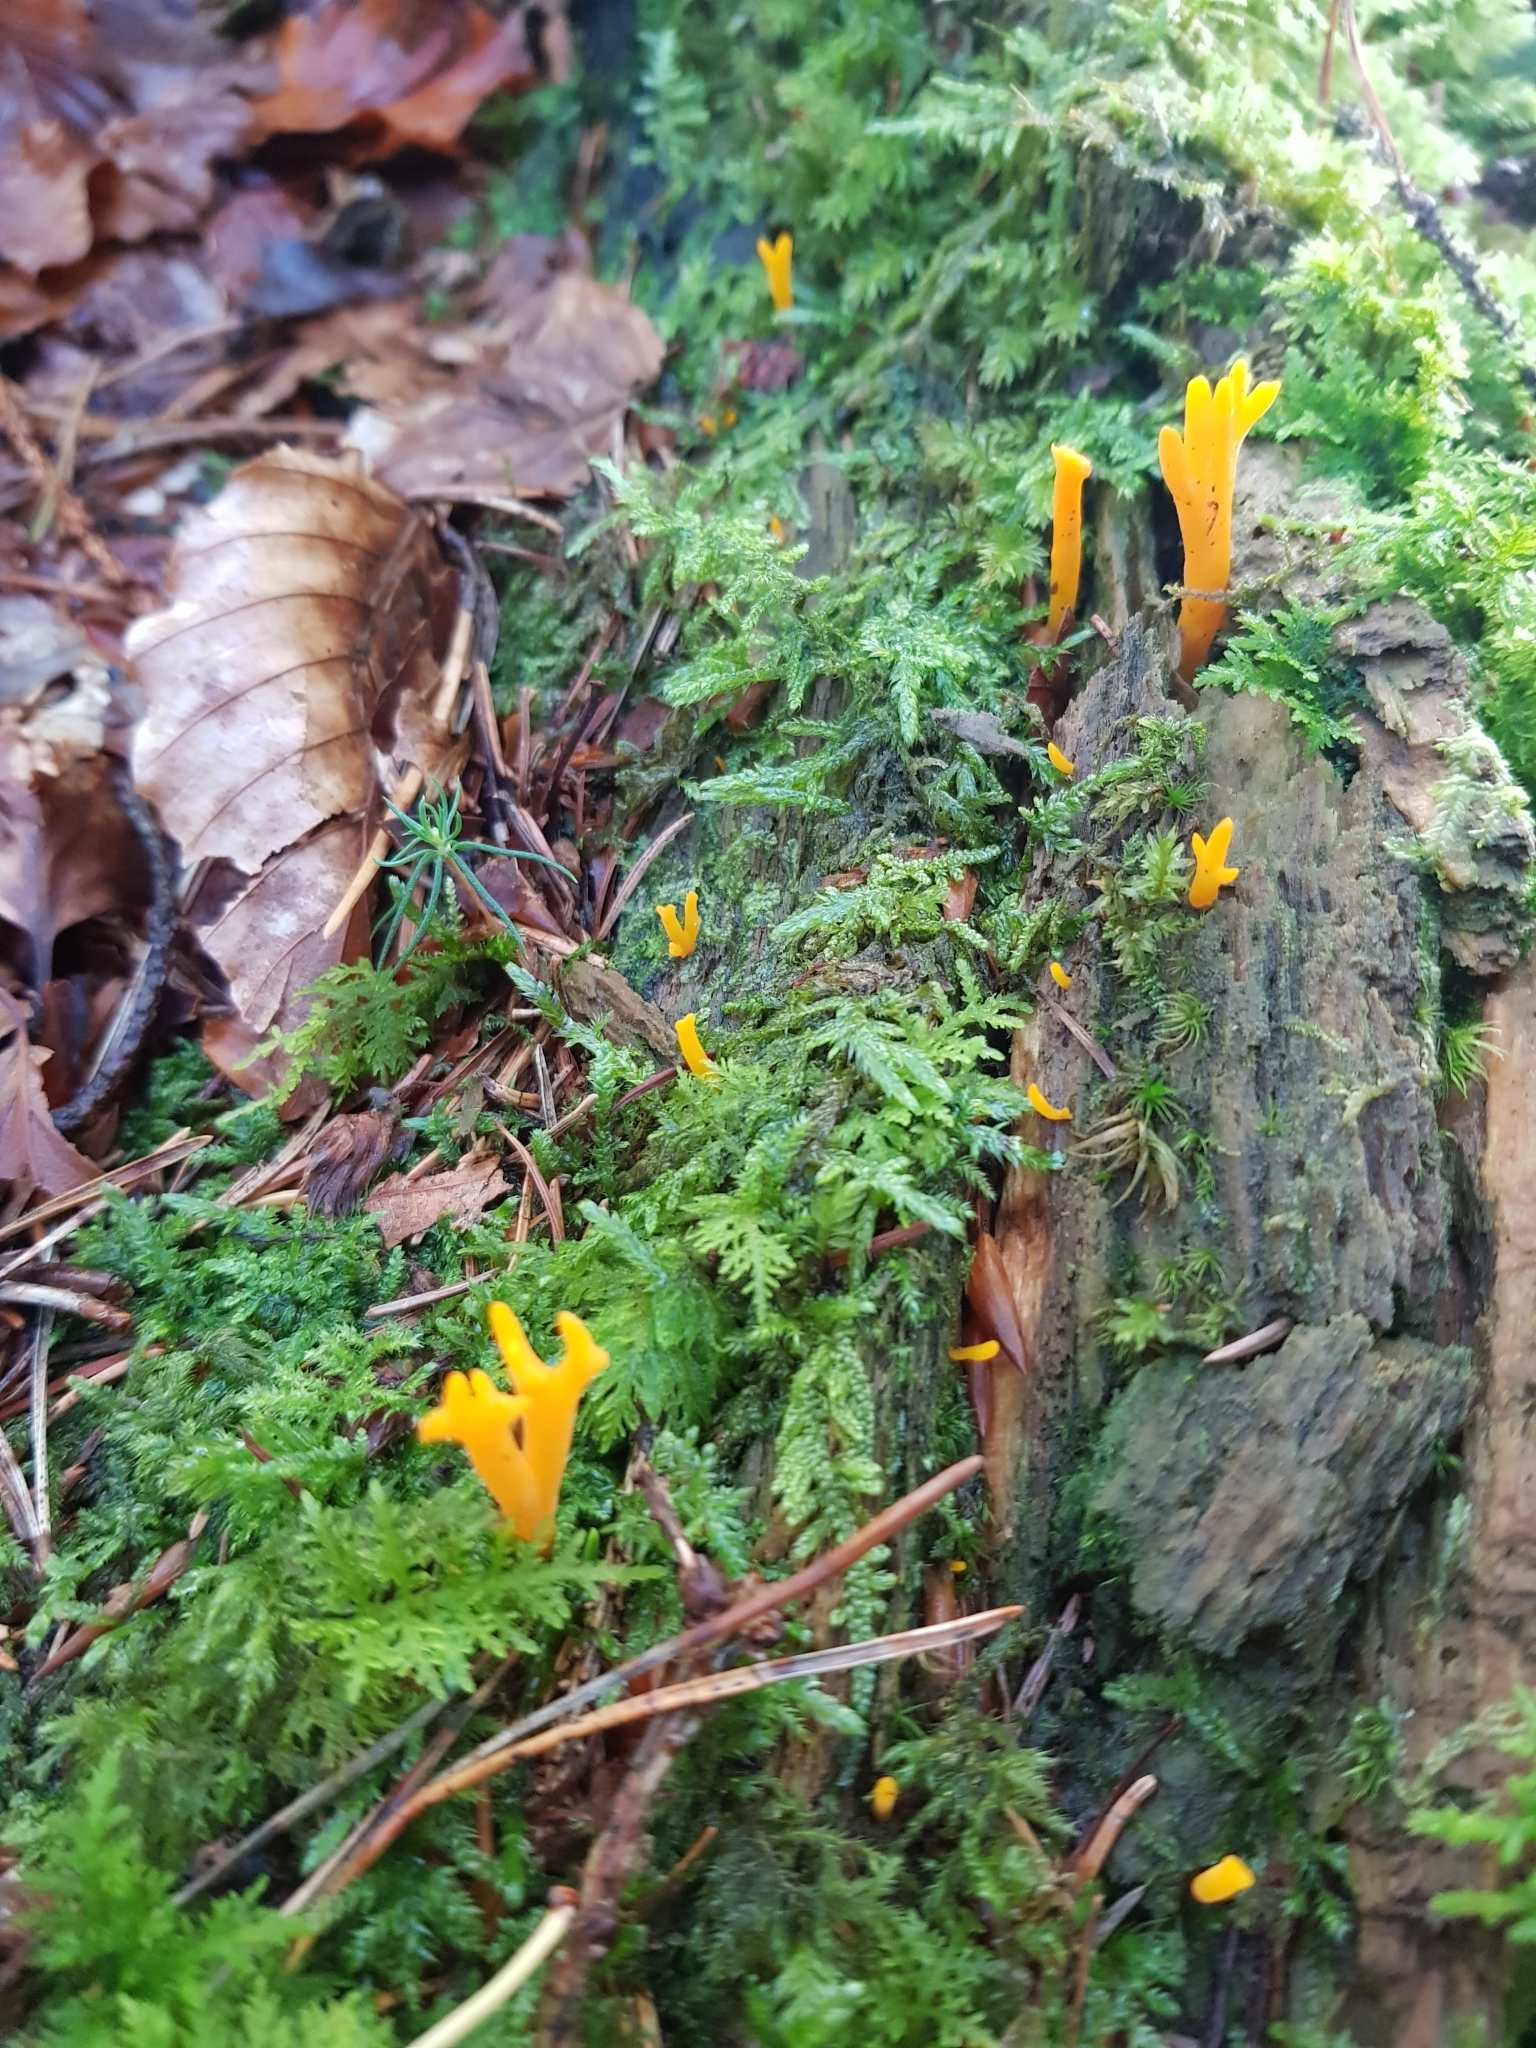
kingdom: Fungi
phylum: Basidiomycota
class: Dacrymycetes
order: Dacrymycetales
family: Dacrymycetaceae
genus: Calocera
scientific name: Calocera viscosa
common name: Yellow stagshorn
